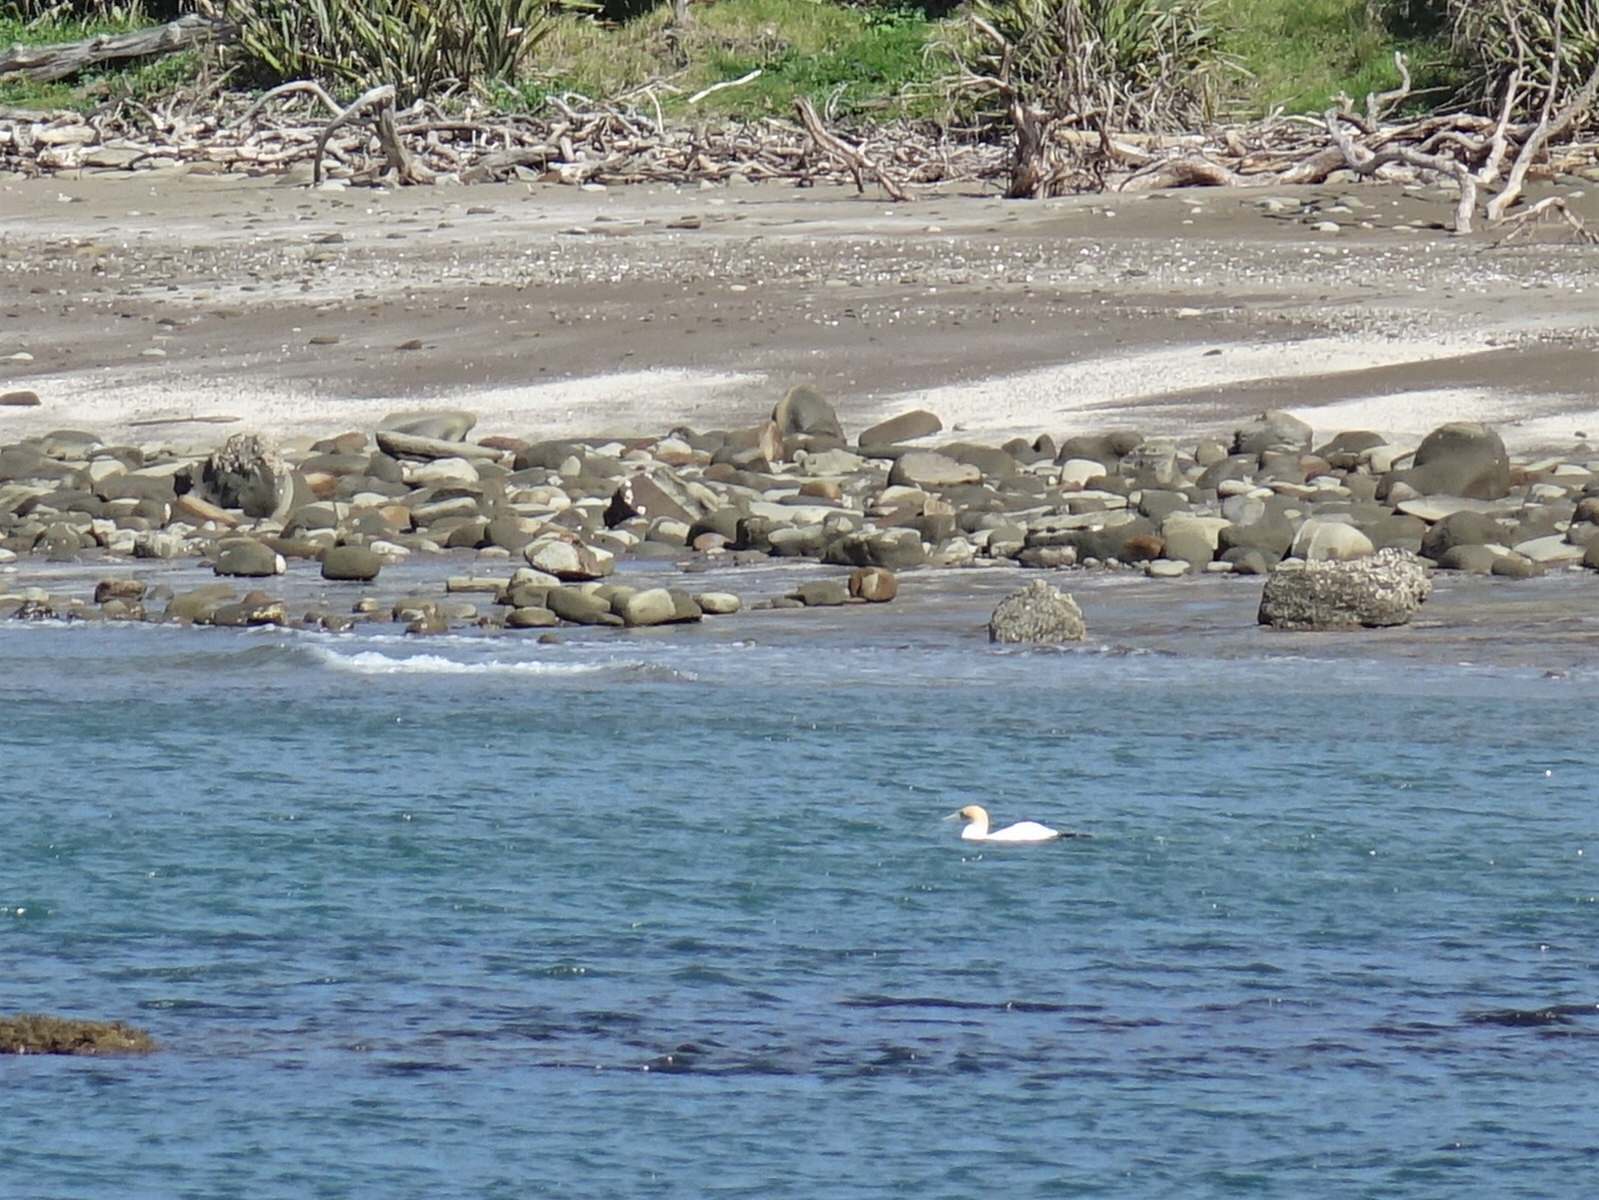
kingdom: Animalia
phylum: Chordata
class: Aves
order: Suliformes
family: Sulidae
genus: Morus
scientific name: Morus serrator
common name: Australasian gannet
